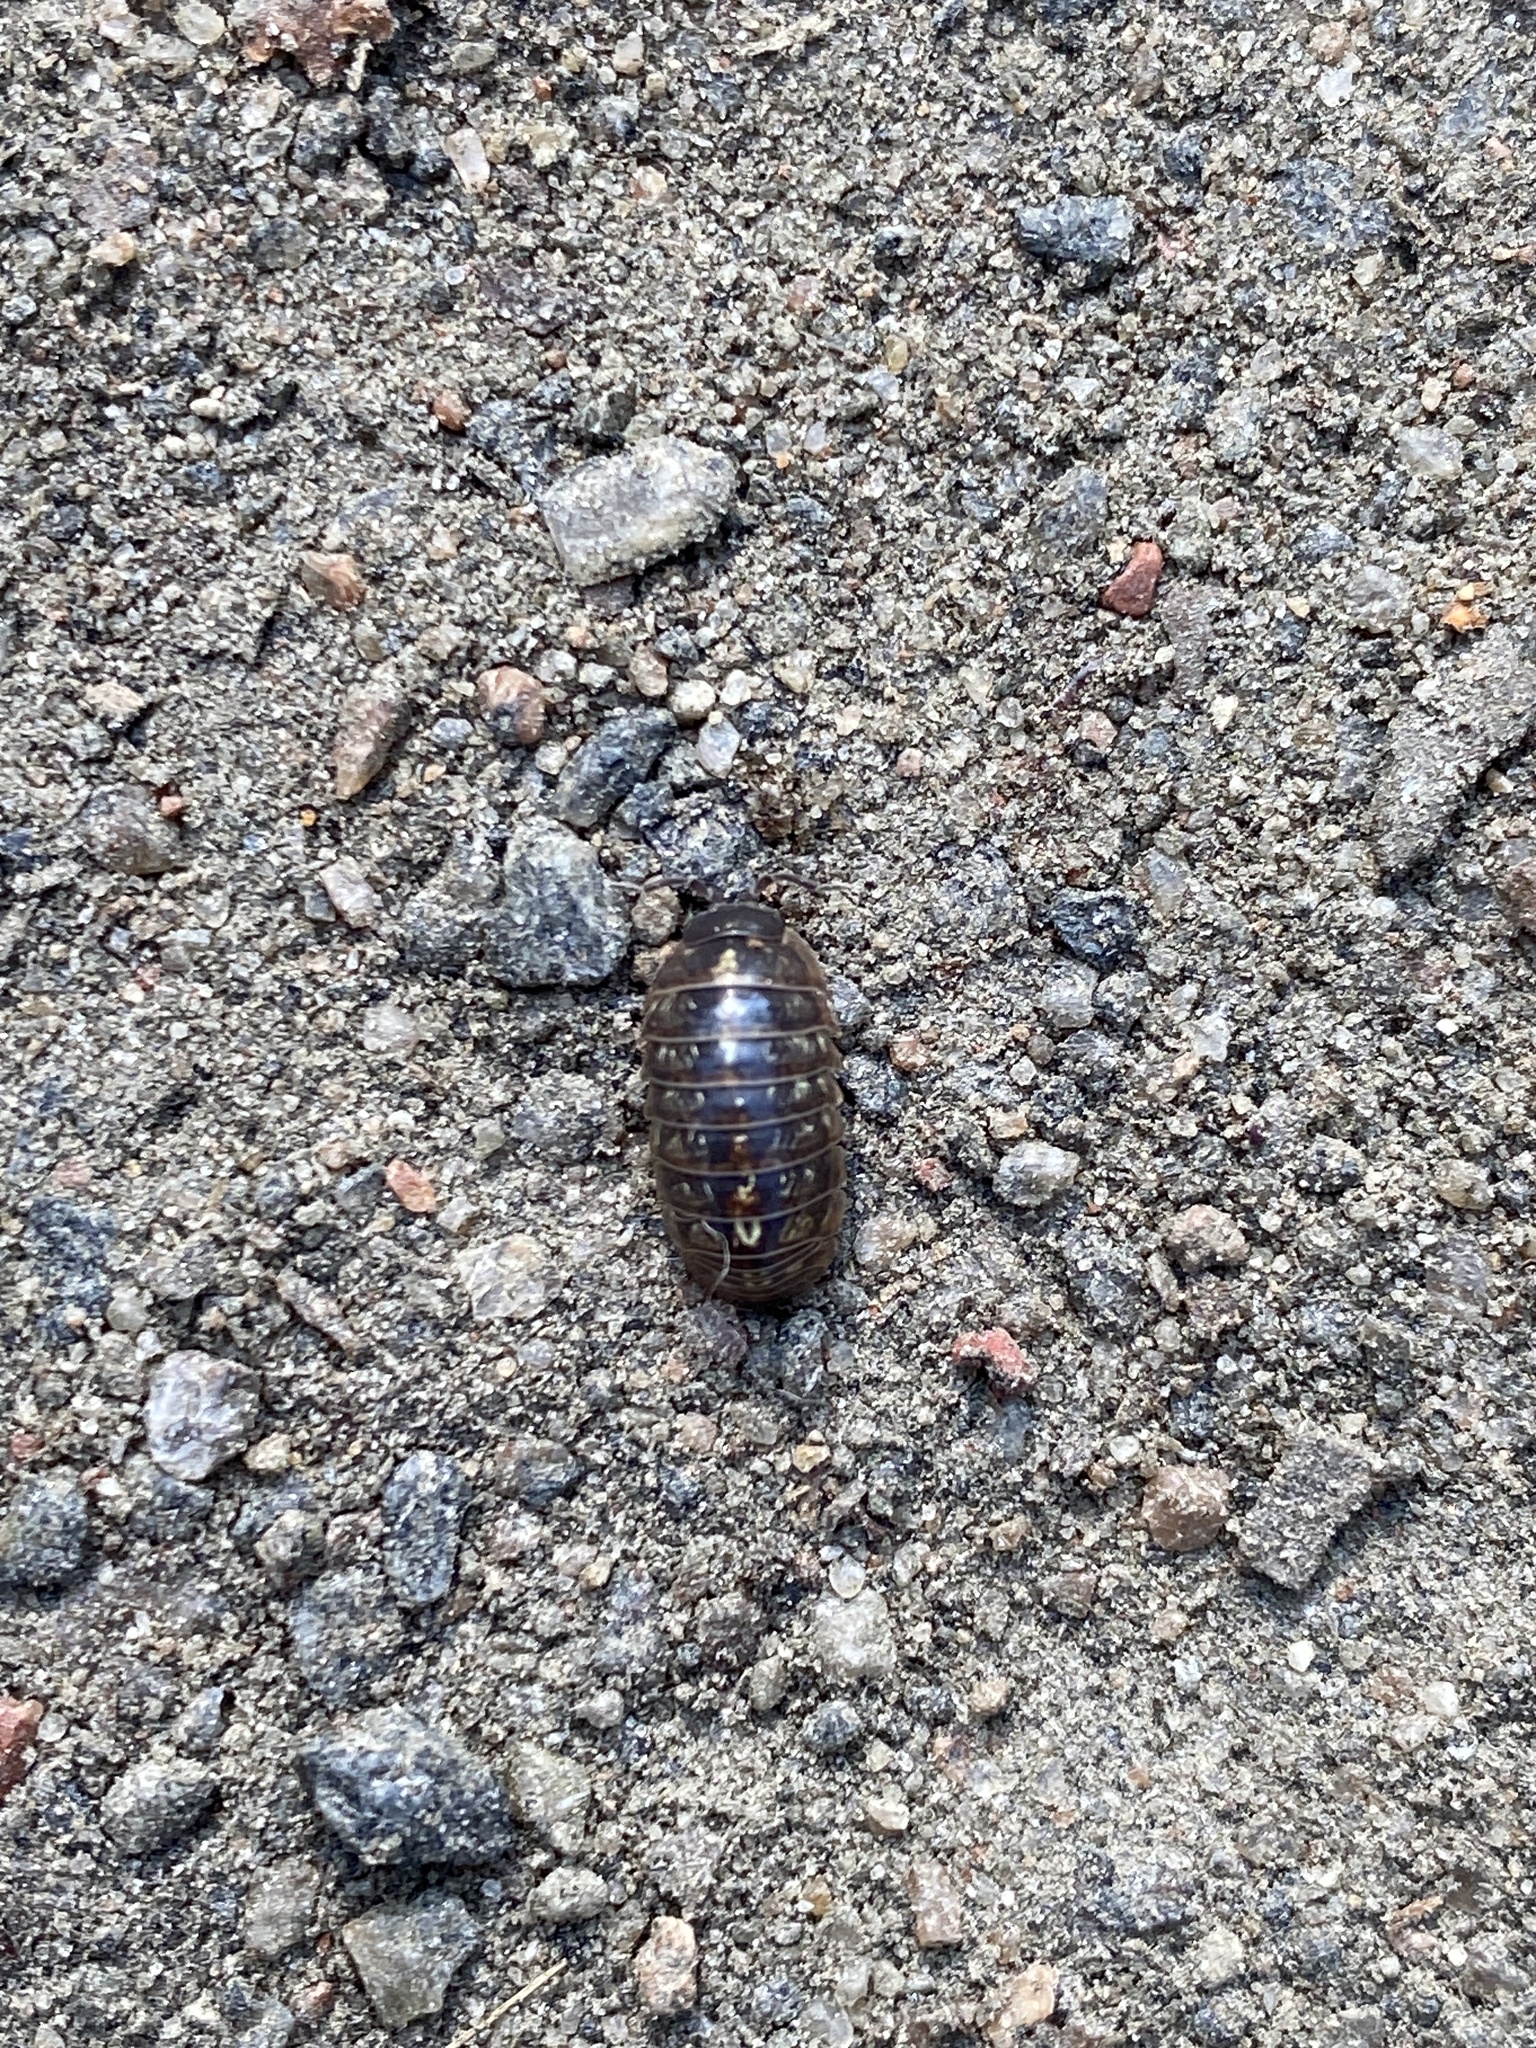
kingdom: Animalia
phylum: Arthropoda
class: Malacostraca
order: Isopoda
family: Armadillidiidae
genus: Armadillidium
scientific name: Armadillidium vulgare
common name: Common pill woodlouse
